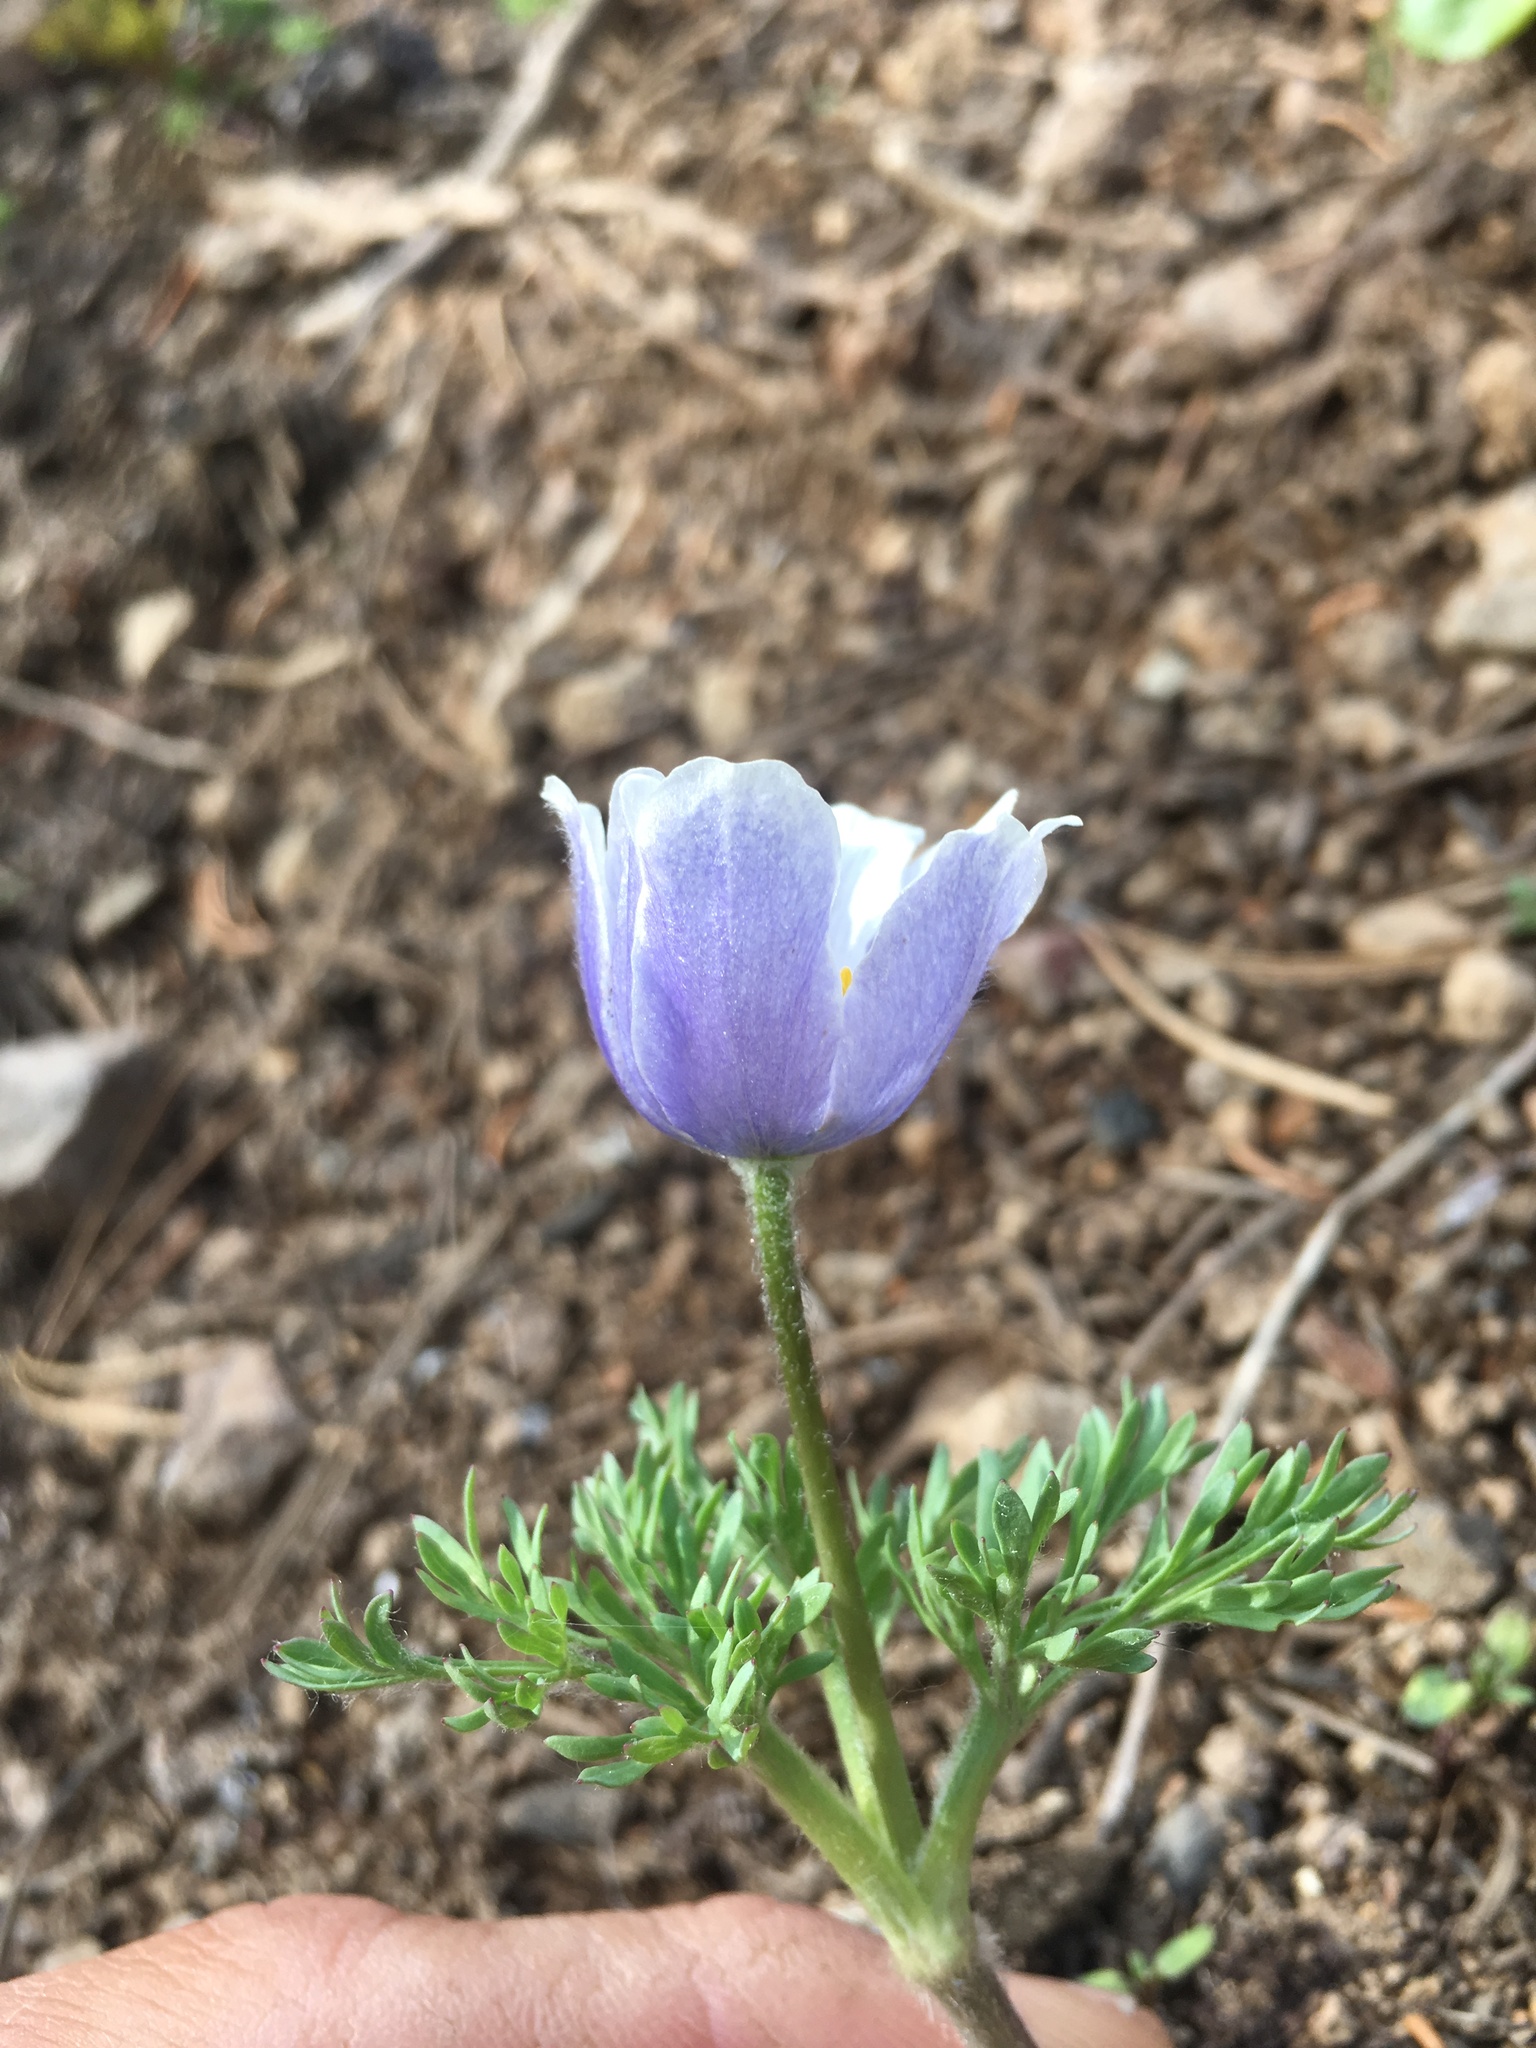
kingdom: Plantae
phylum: Tracheophyta
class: Magnoliopsida
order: Ranunculales
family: Ranunculaceae
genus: Anemone
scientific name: Anemone drummondii
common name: Drummond's anemone
